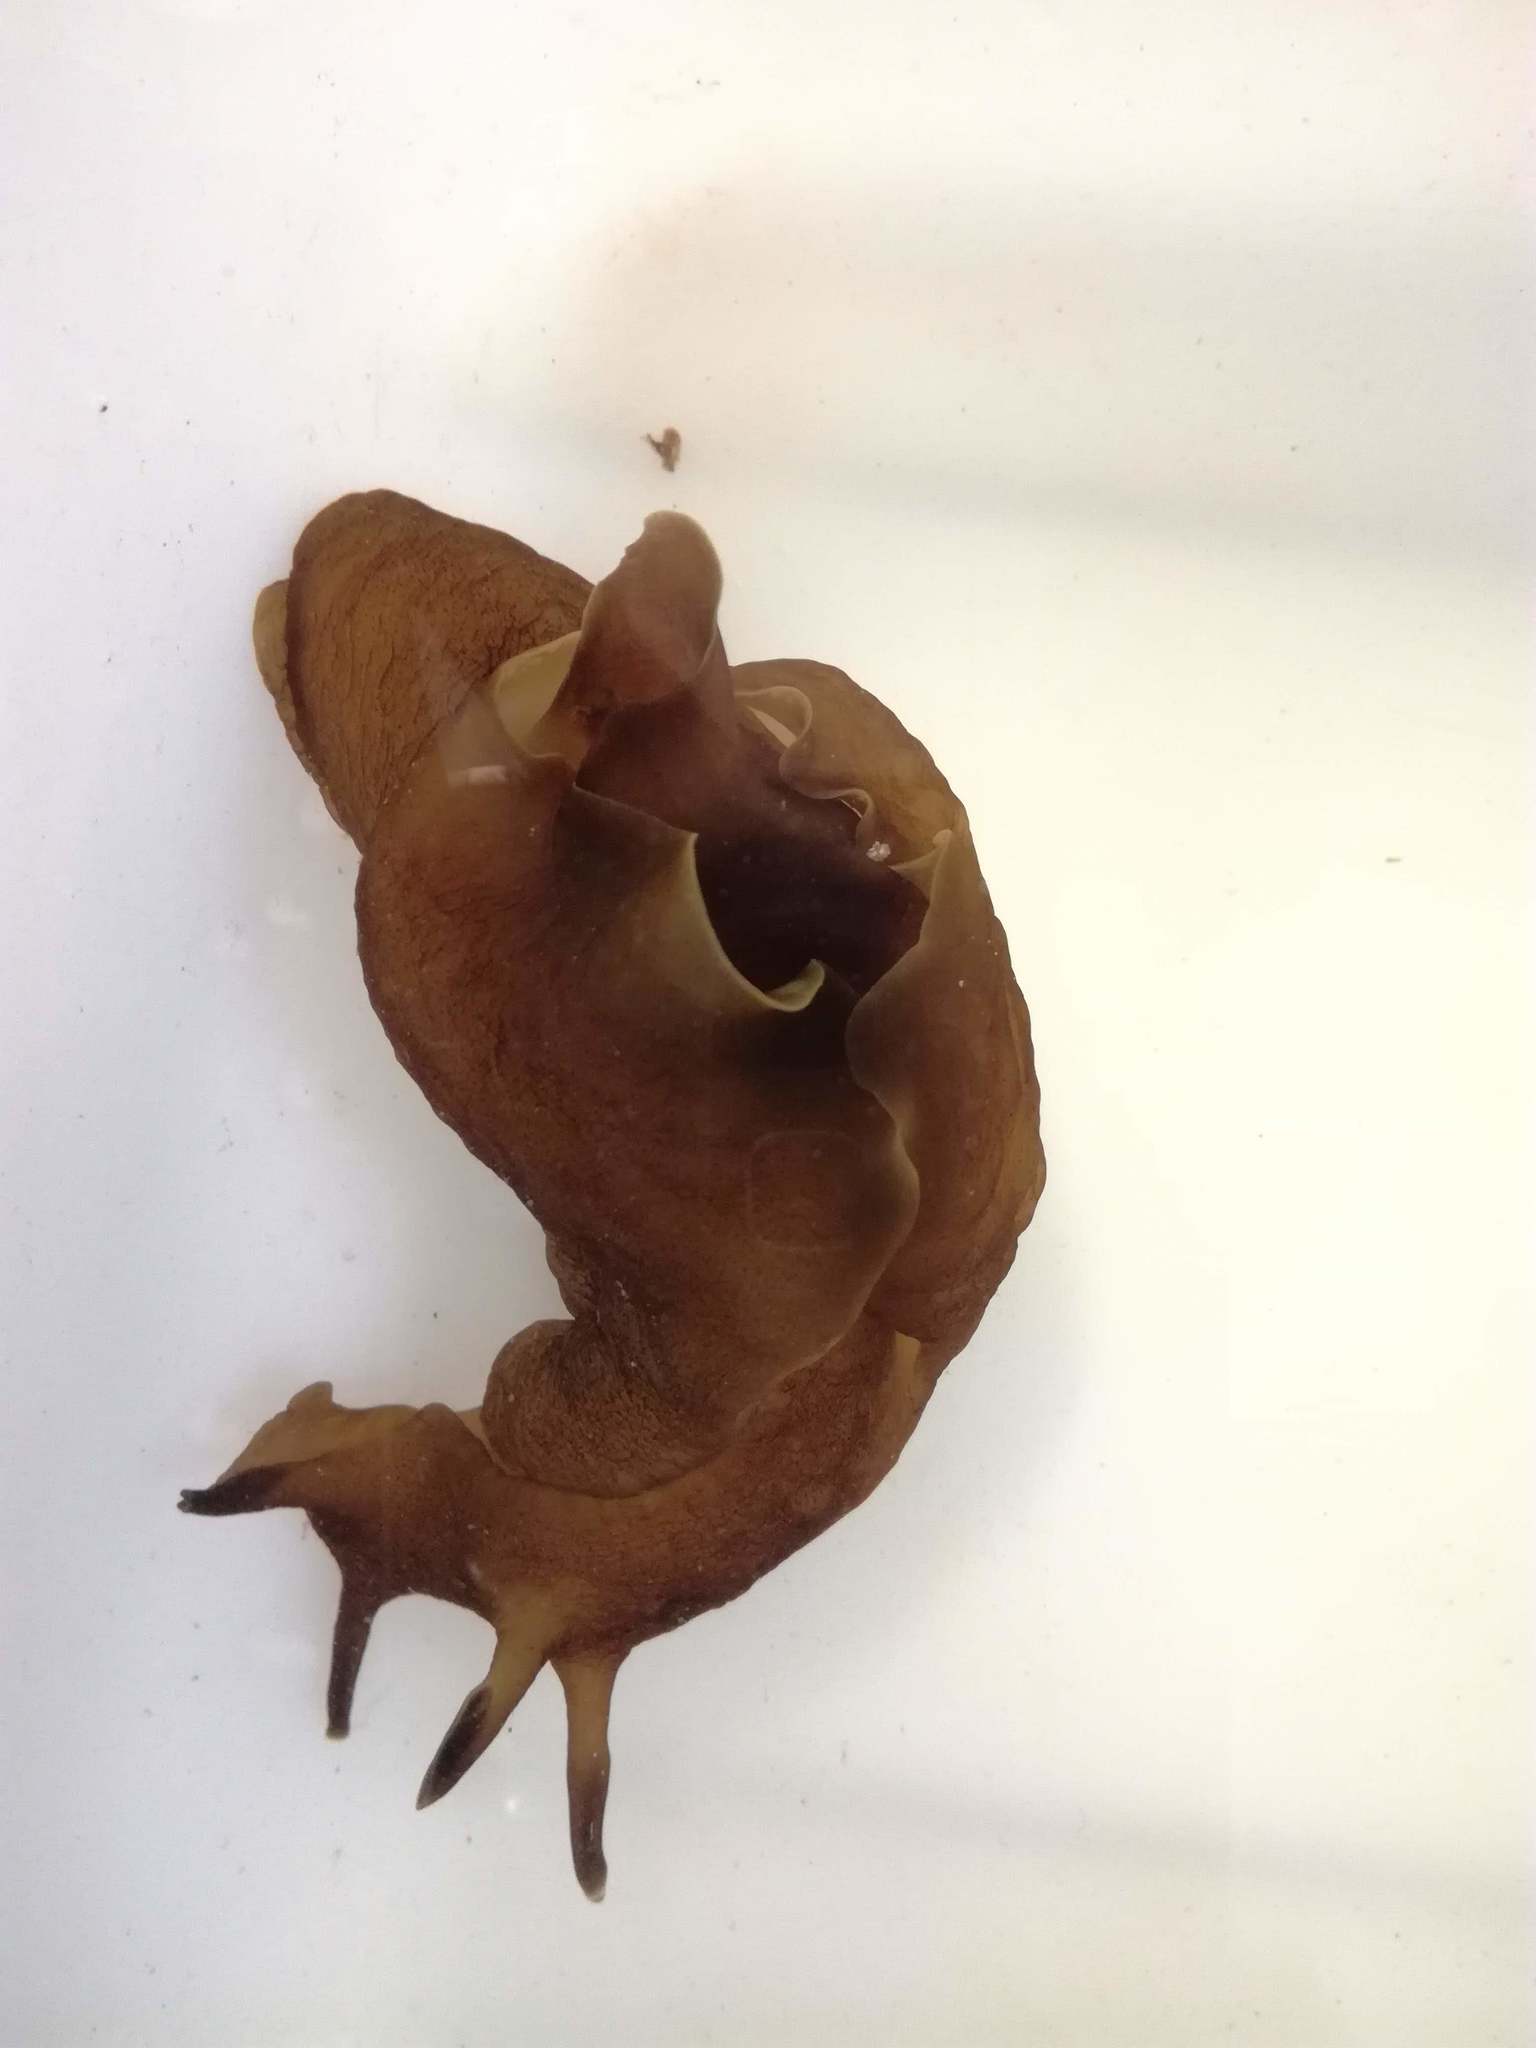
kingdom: Animalia
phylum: Mollusca
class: Gastropoda
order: Aplysiida
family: Aplysiidae
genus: Aplysia
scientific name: Aplysia punctata
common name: Common sea hare
